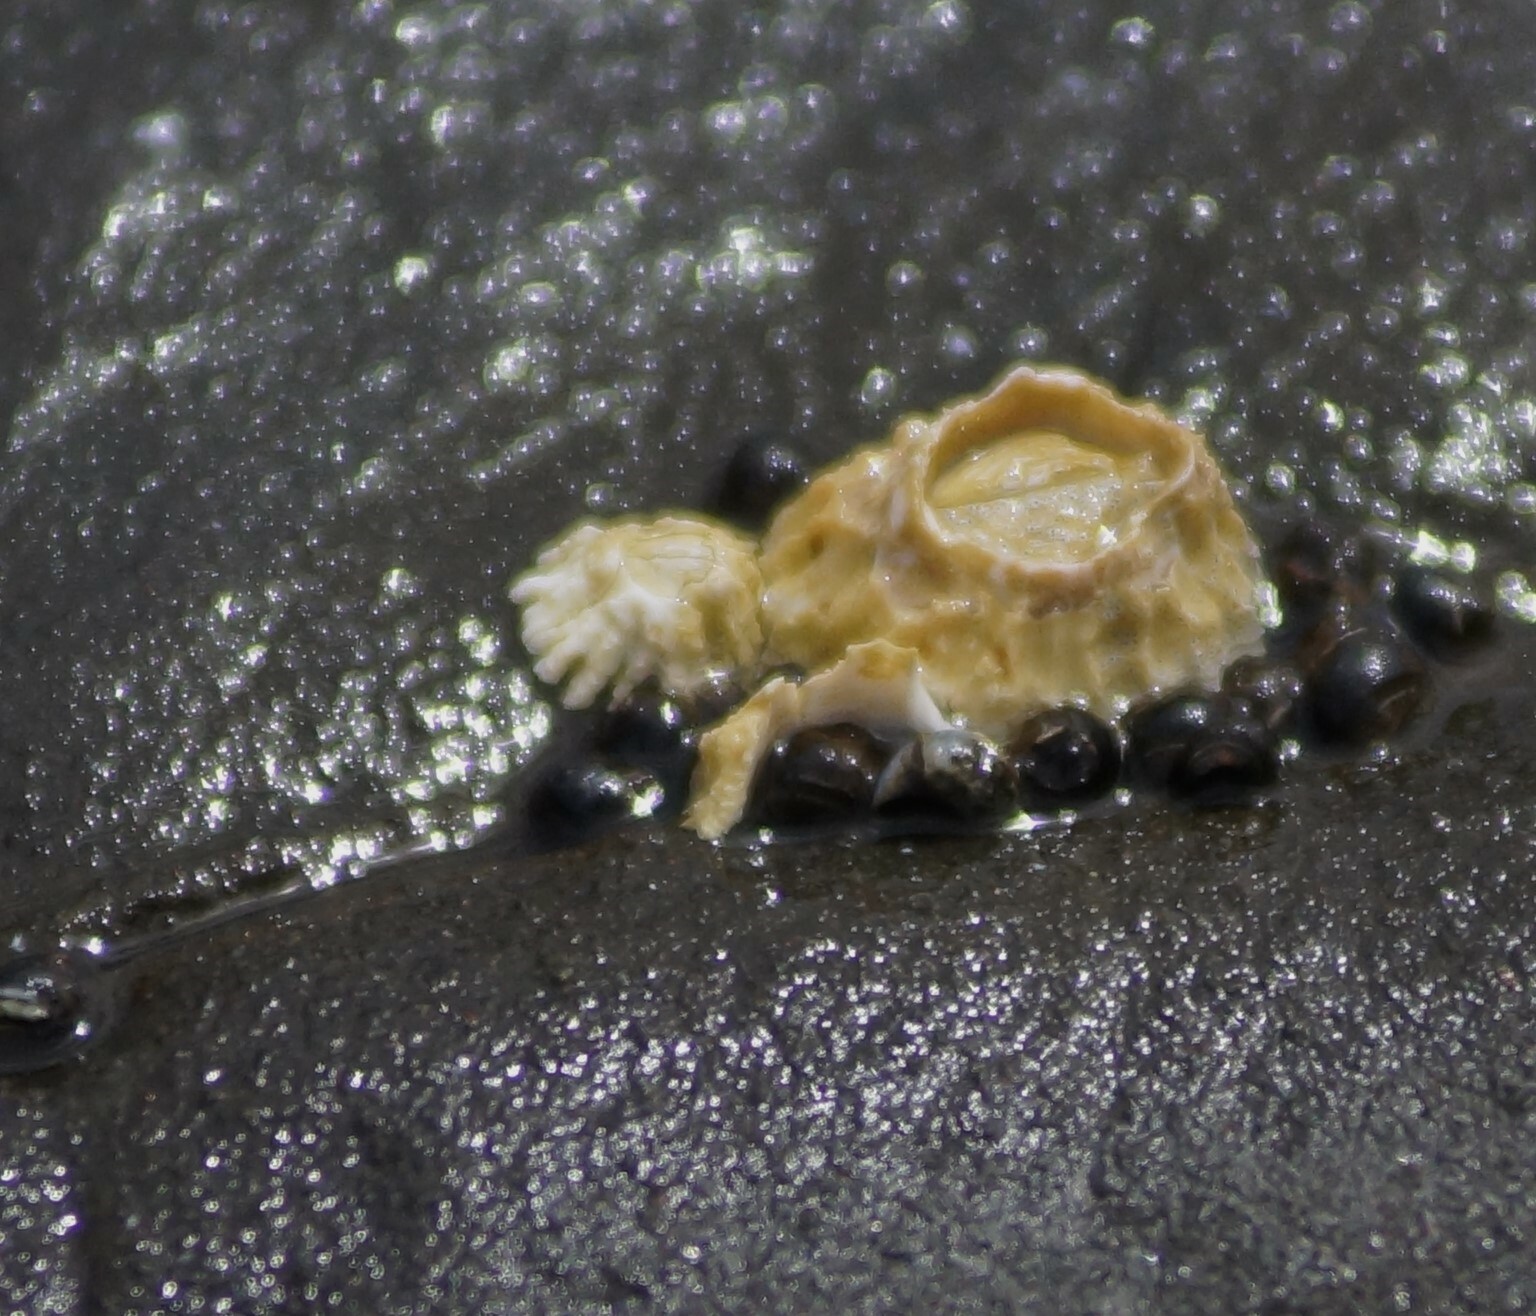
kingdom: Animalia
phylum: Arthropoda
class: Maxillopoda
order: Sessilia
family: Tetraclitidae
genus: Epopella
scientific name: Epopella plicata
